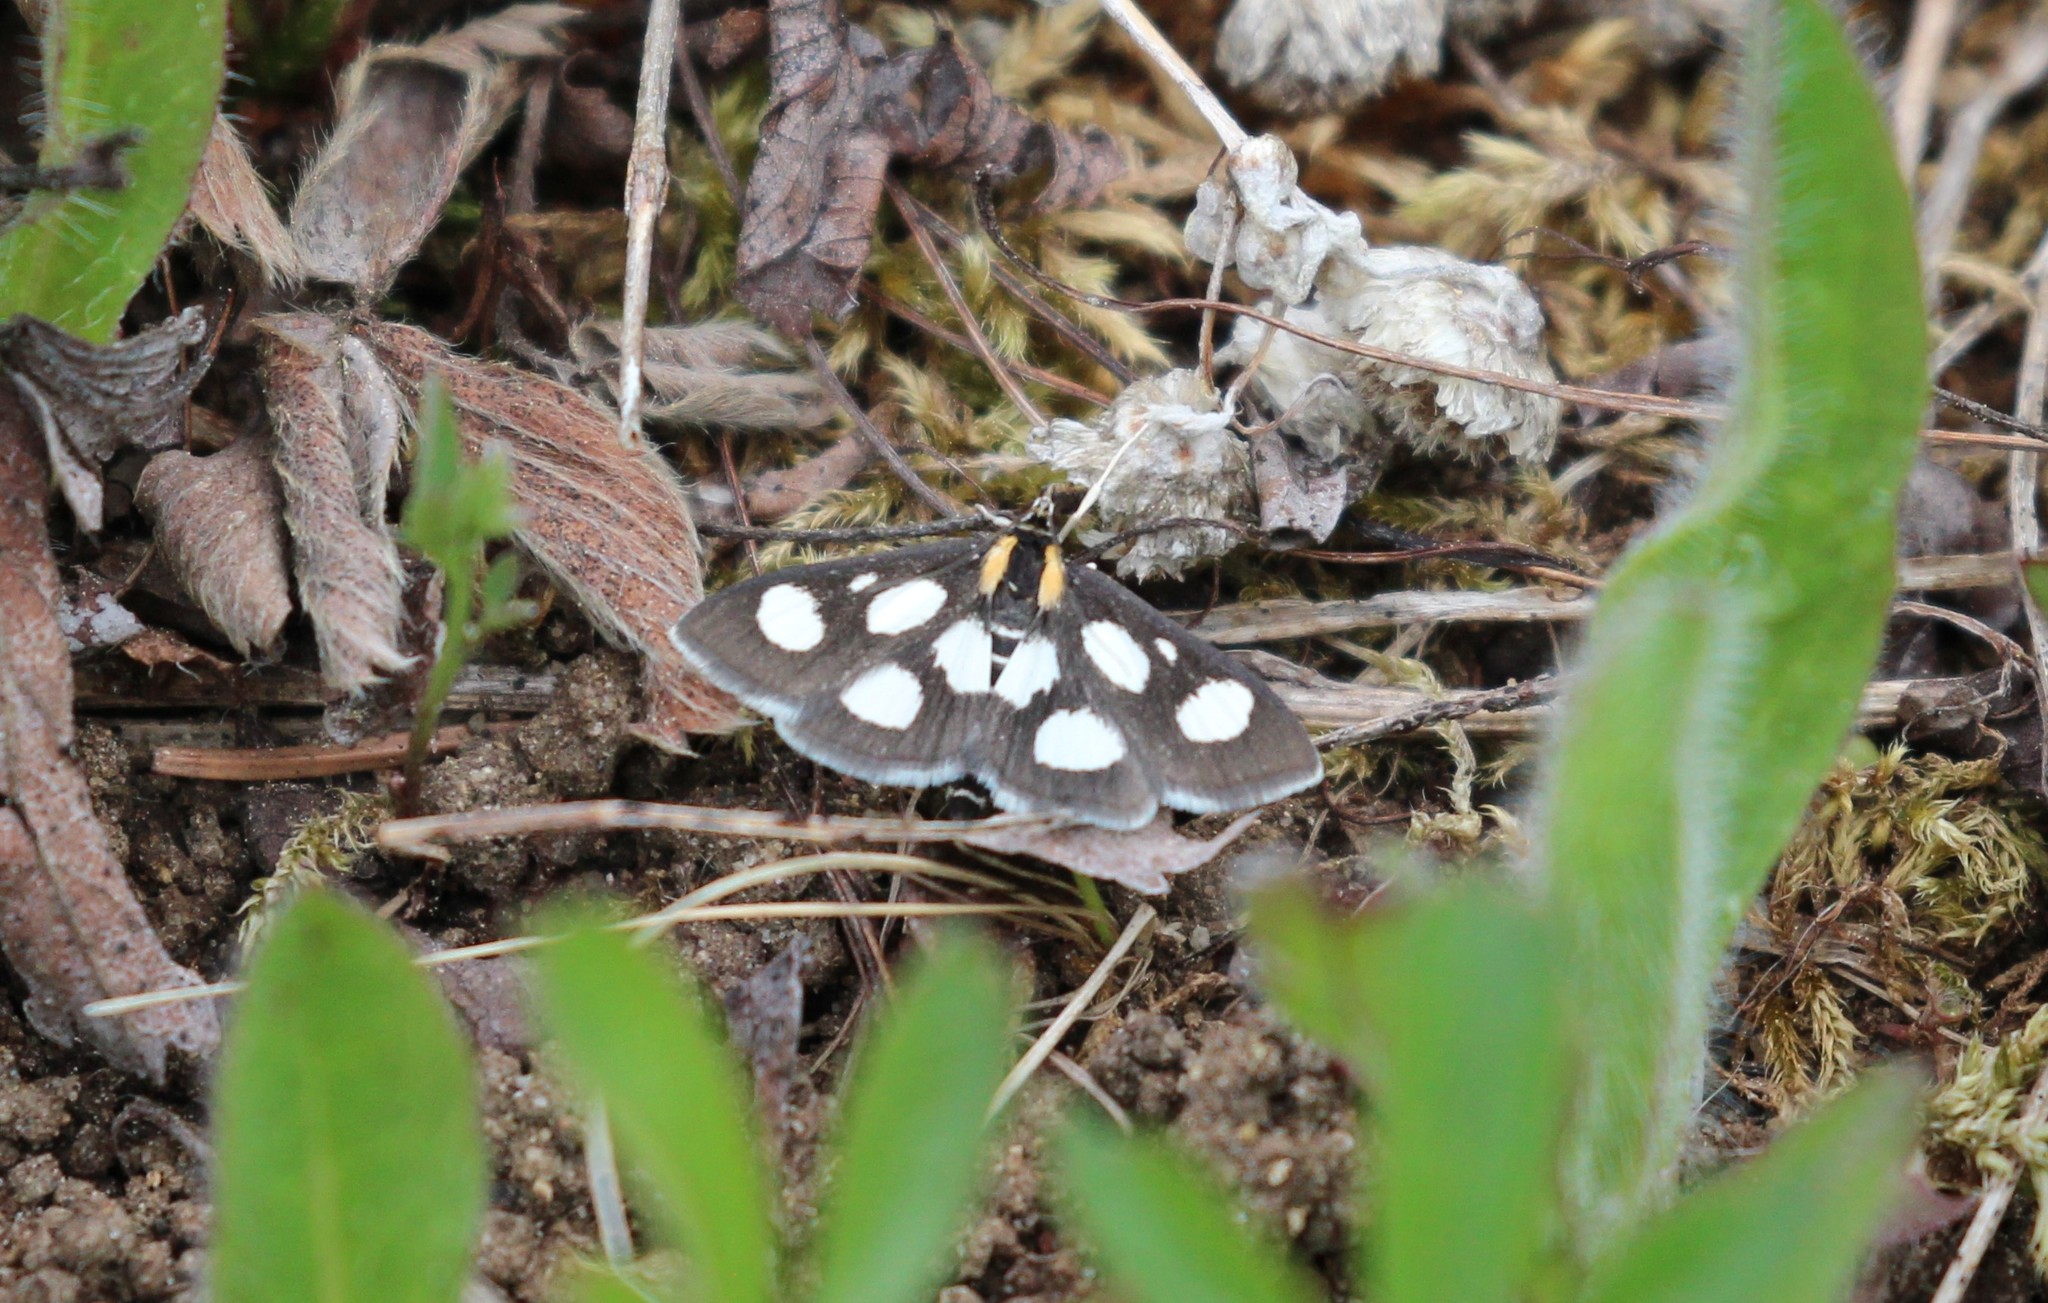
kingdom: Animalia
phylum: Arthropoda
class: Insecta
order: Lepidoptera
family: Crambidae
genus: Anania
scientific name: Anania funebris
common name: White-spotted sable moth
